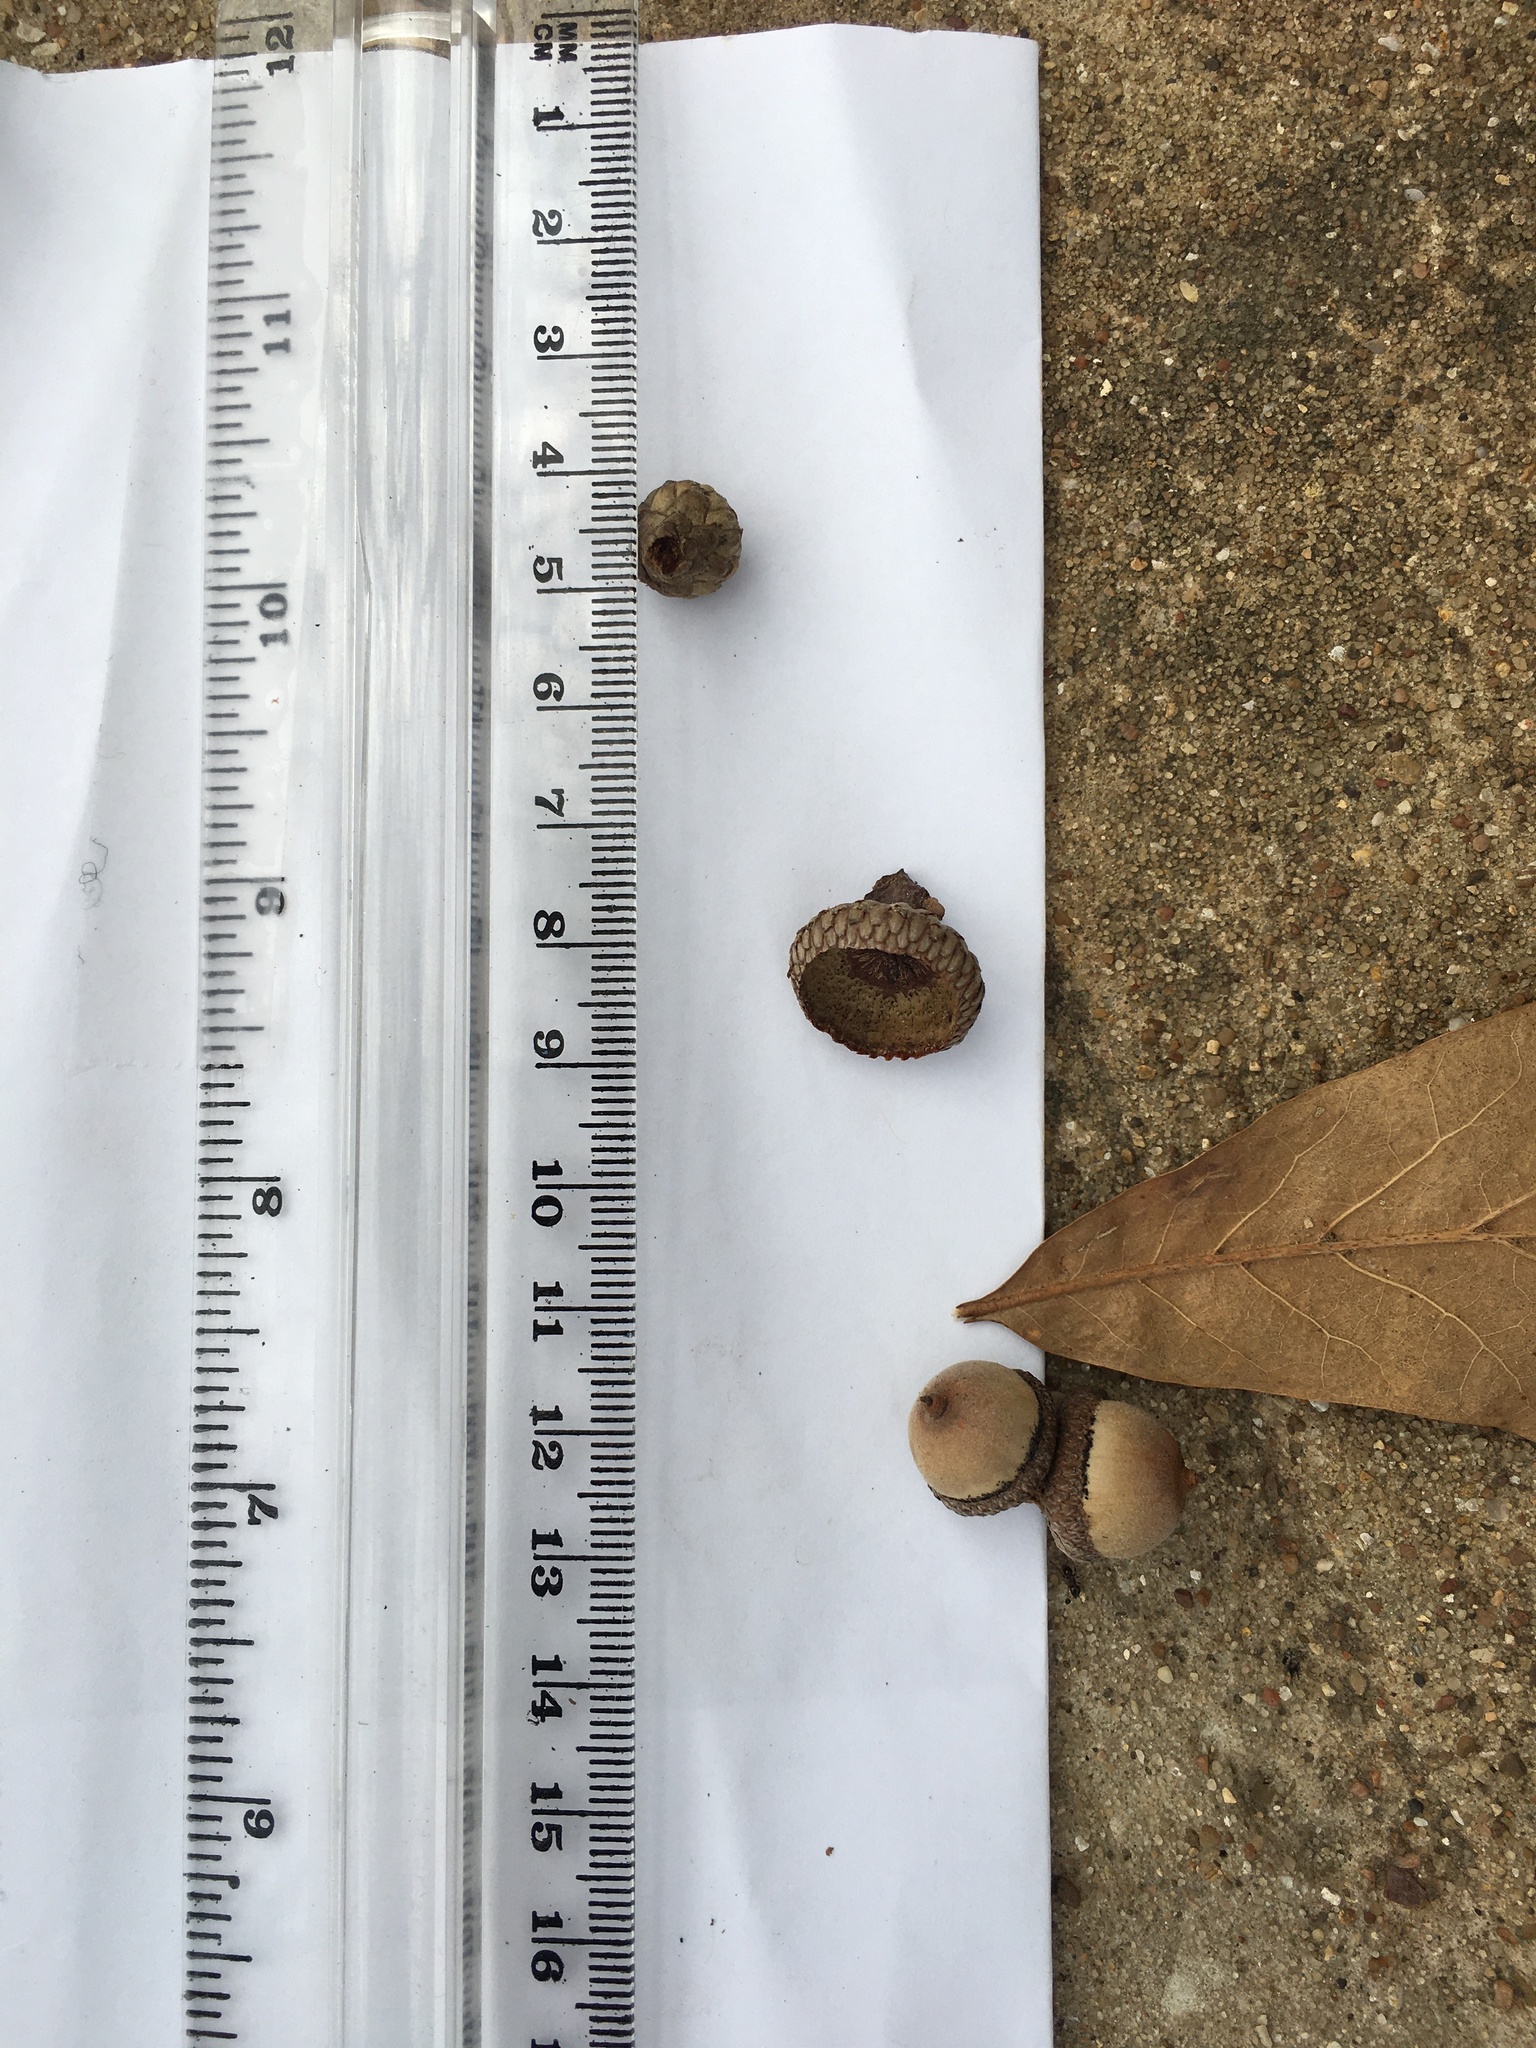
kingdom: Plantae
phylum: Tracheophyta
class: Magnoliopsida
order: Fagales
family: Fagaceae
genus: Quercus
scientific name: Quercus nigra
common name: Water oak
